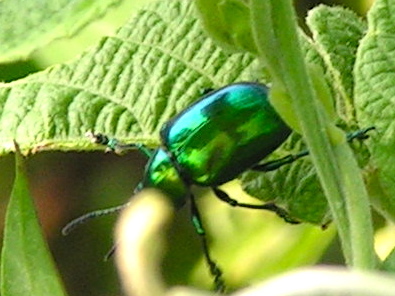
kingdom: Animalia
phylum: Arthropoda
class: Insecta
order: Coleoptera
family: Chrysomelidae
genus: Eumolpus
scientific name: Eumolpus robustus
